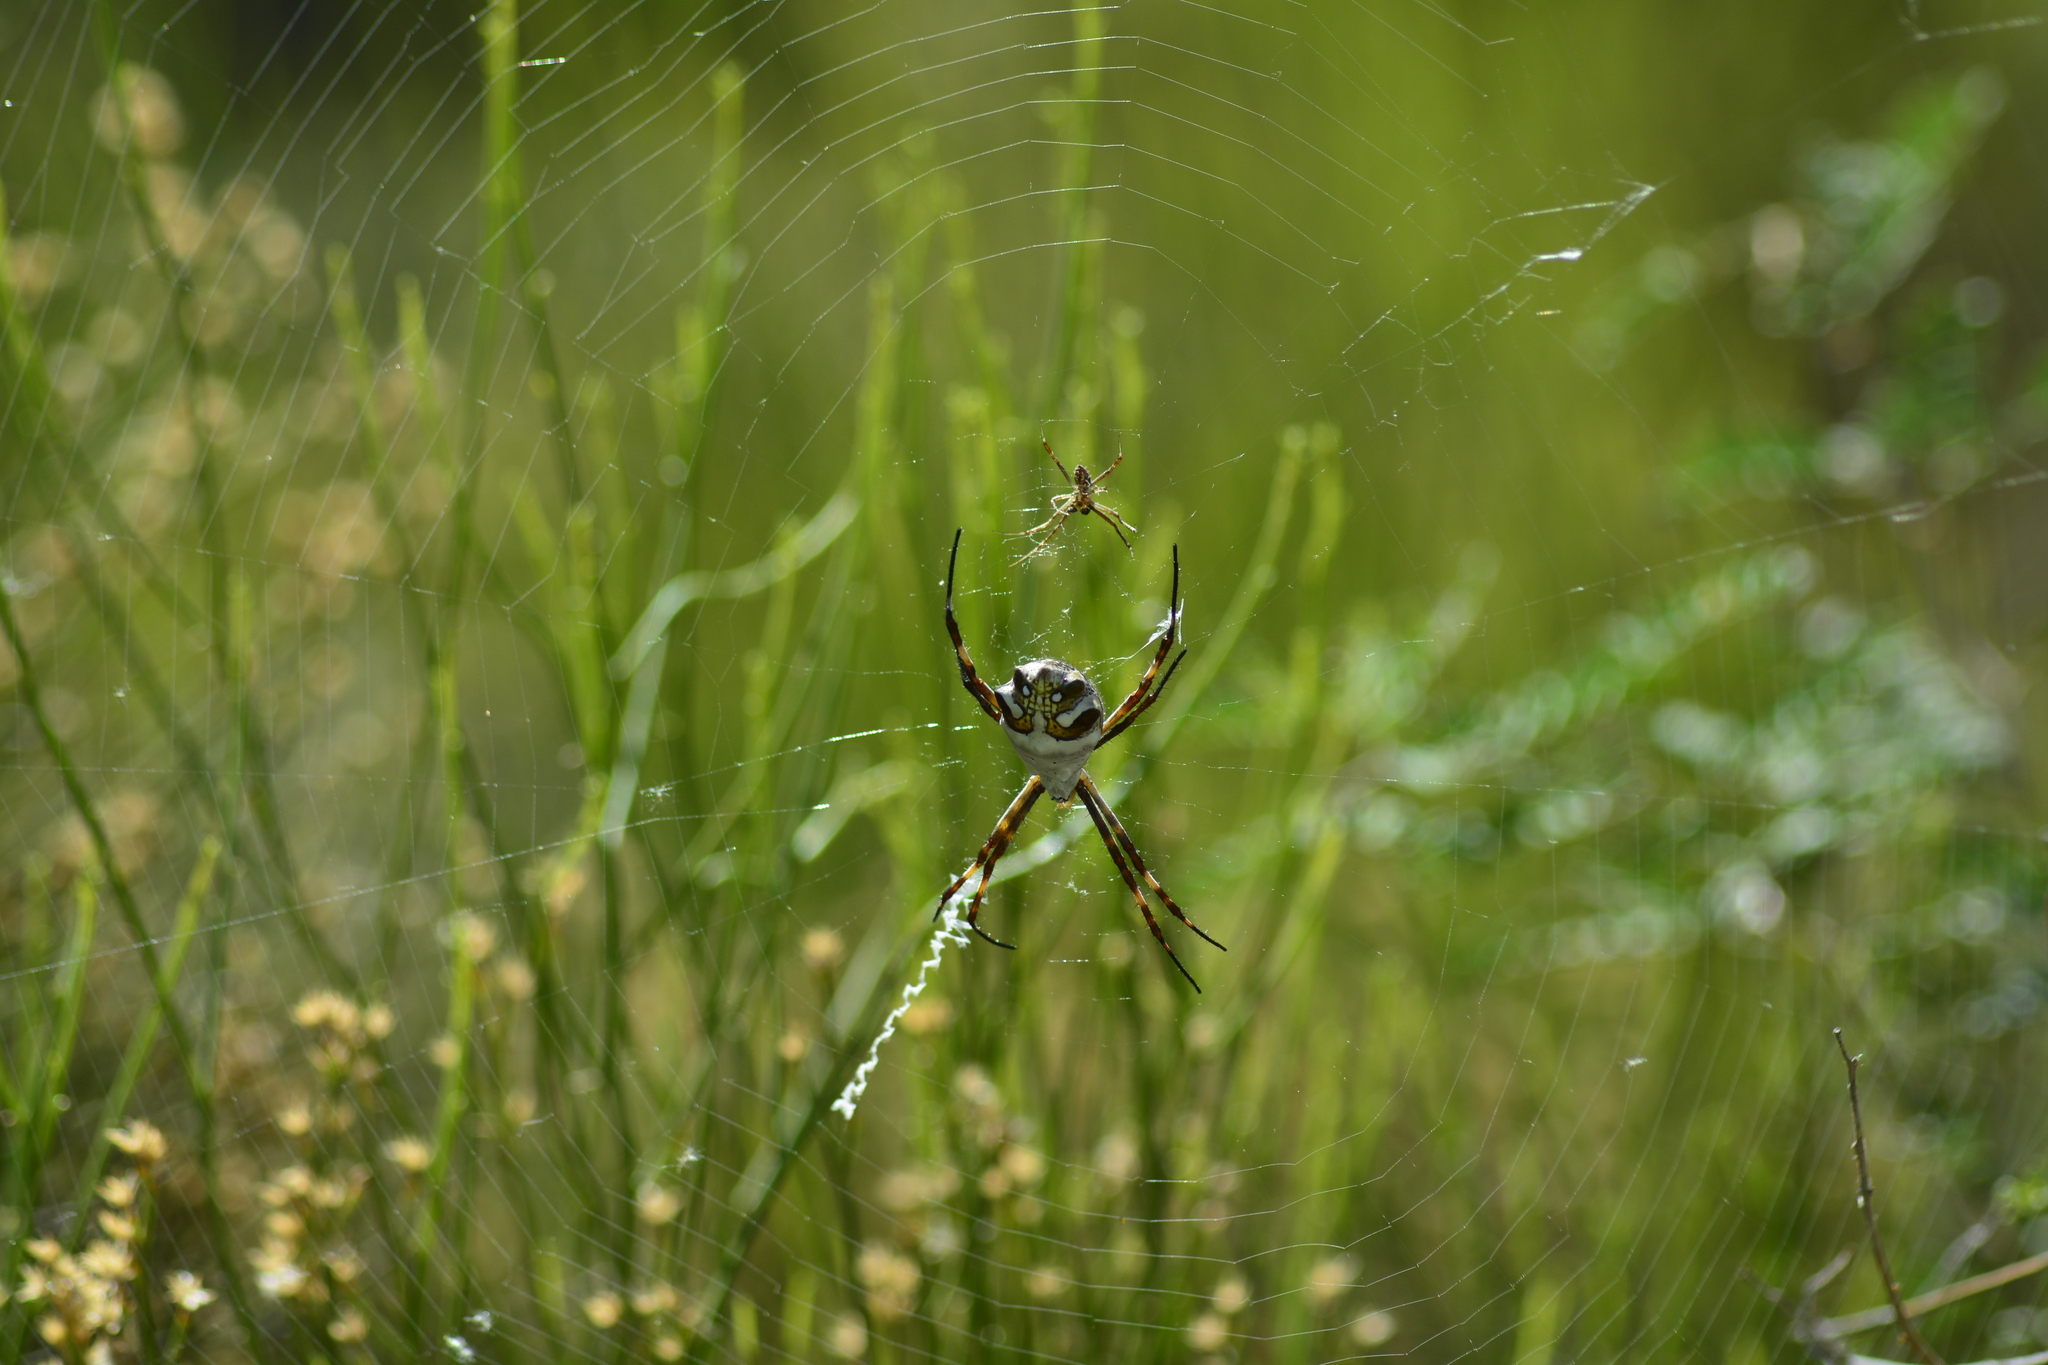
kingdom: Animalia
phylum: Arthropoda
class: Arachnida
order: Araneae
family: Araneidae
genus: Argiope
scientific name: Argiope argentata
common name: Orb weavers
